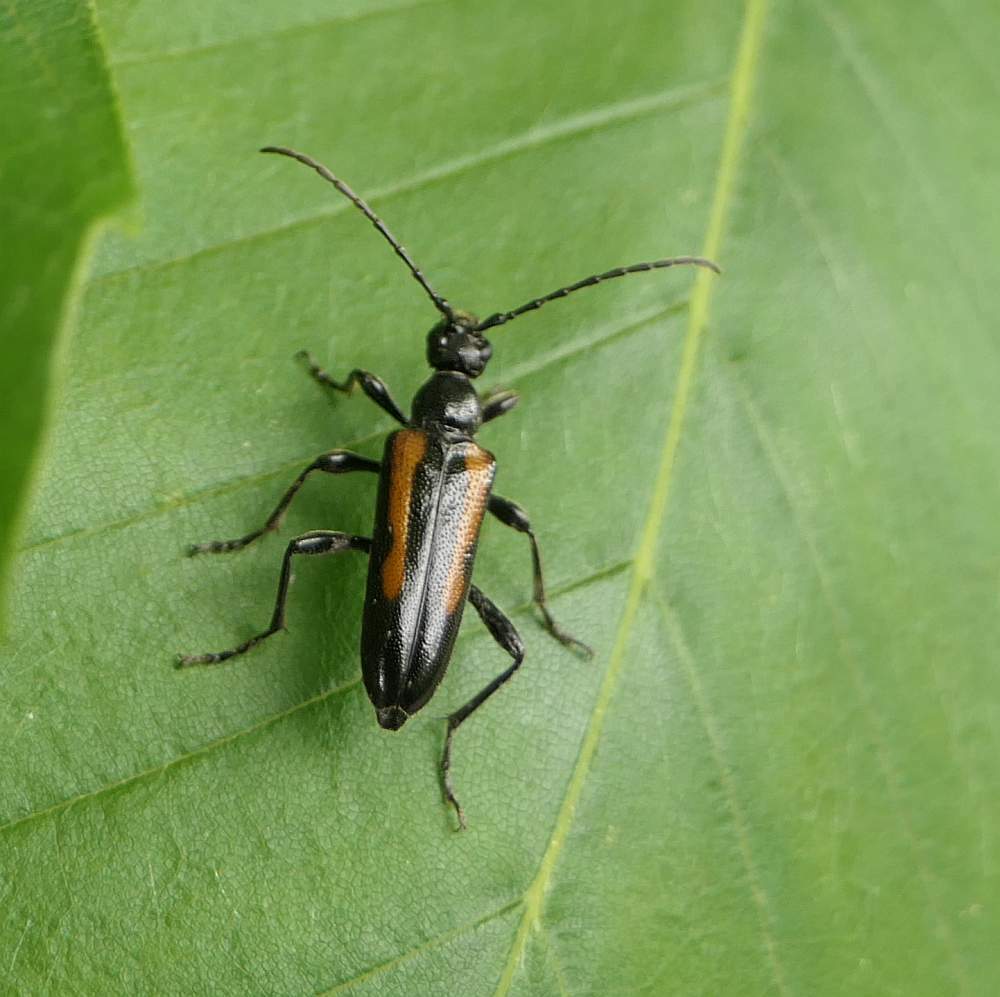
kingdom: Animalia
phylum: Arthropoda
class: Insecta
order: Coleoptera
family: Cerambycidae
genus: Strangalepta
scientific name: Strangalepta abbreviata
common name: Strangalepta flower longhorn beetle
